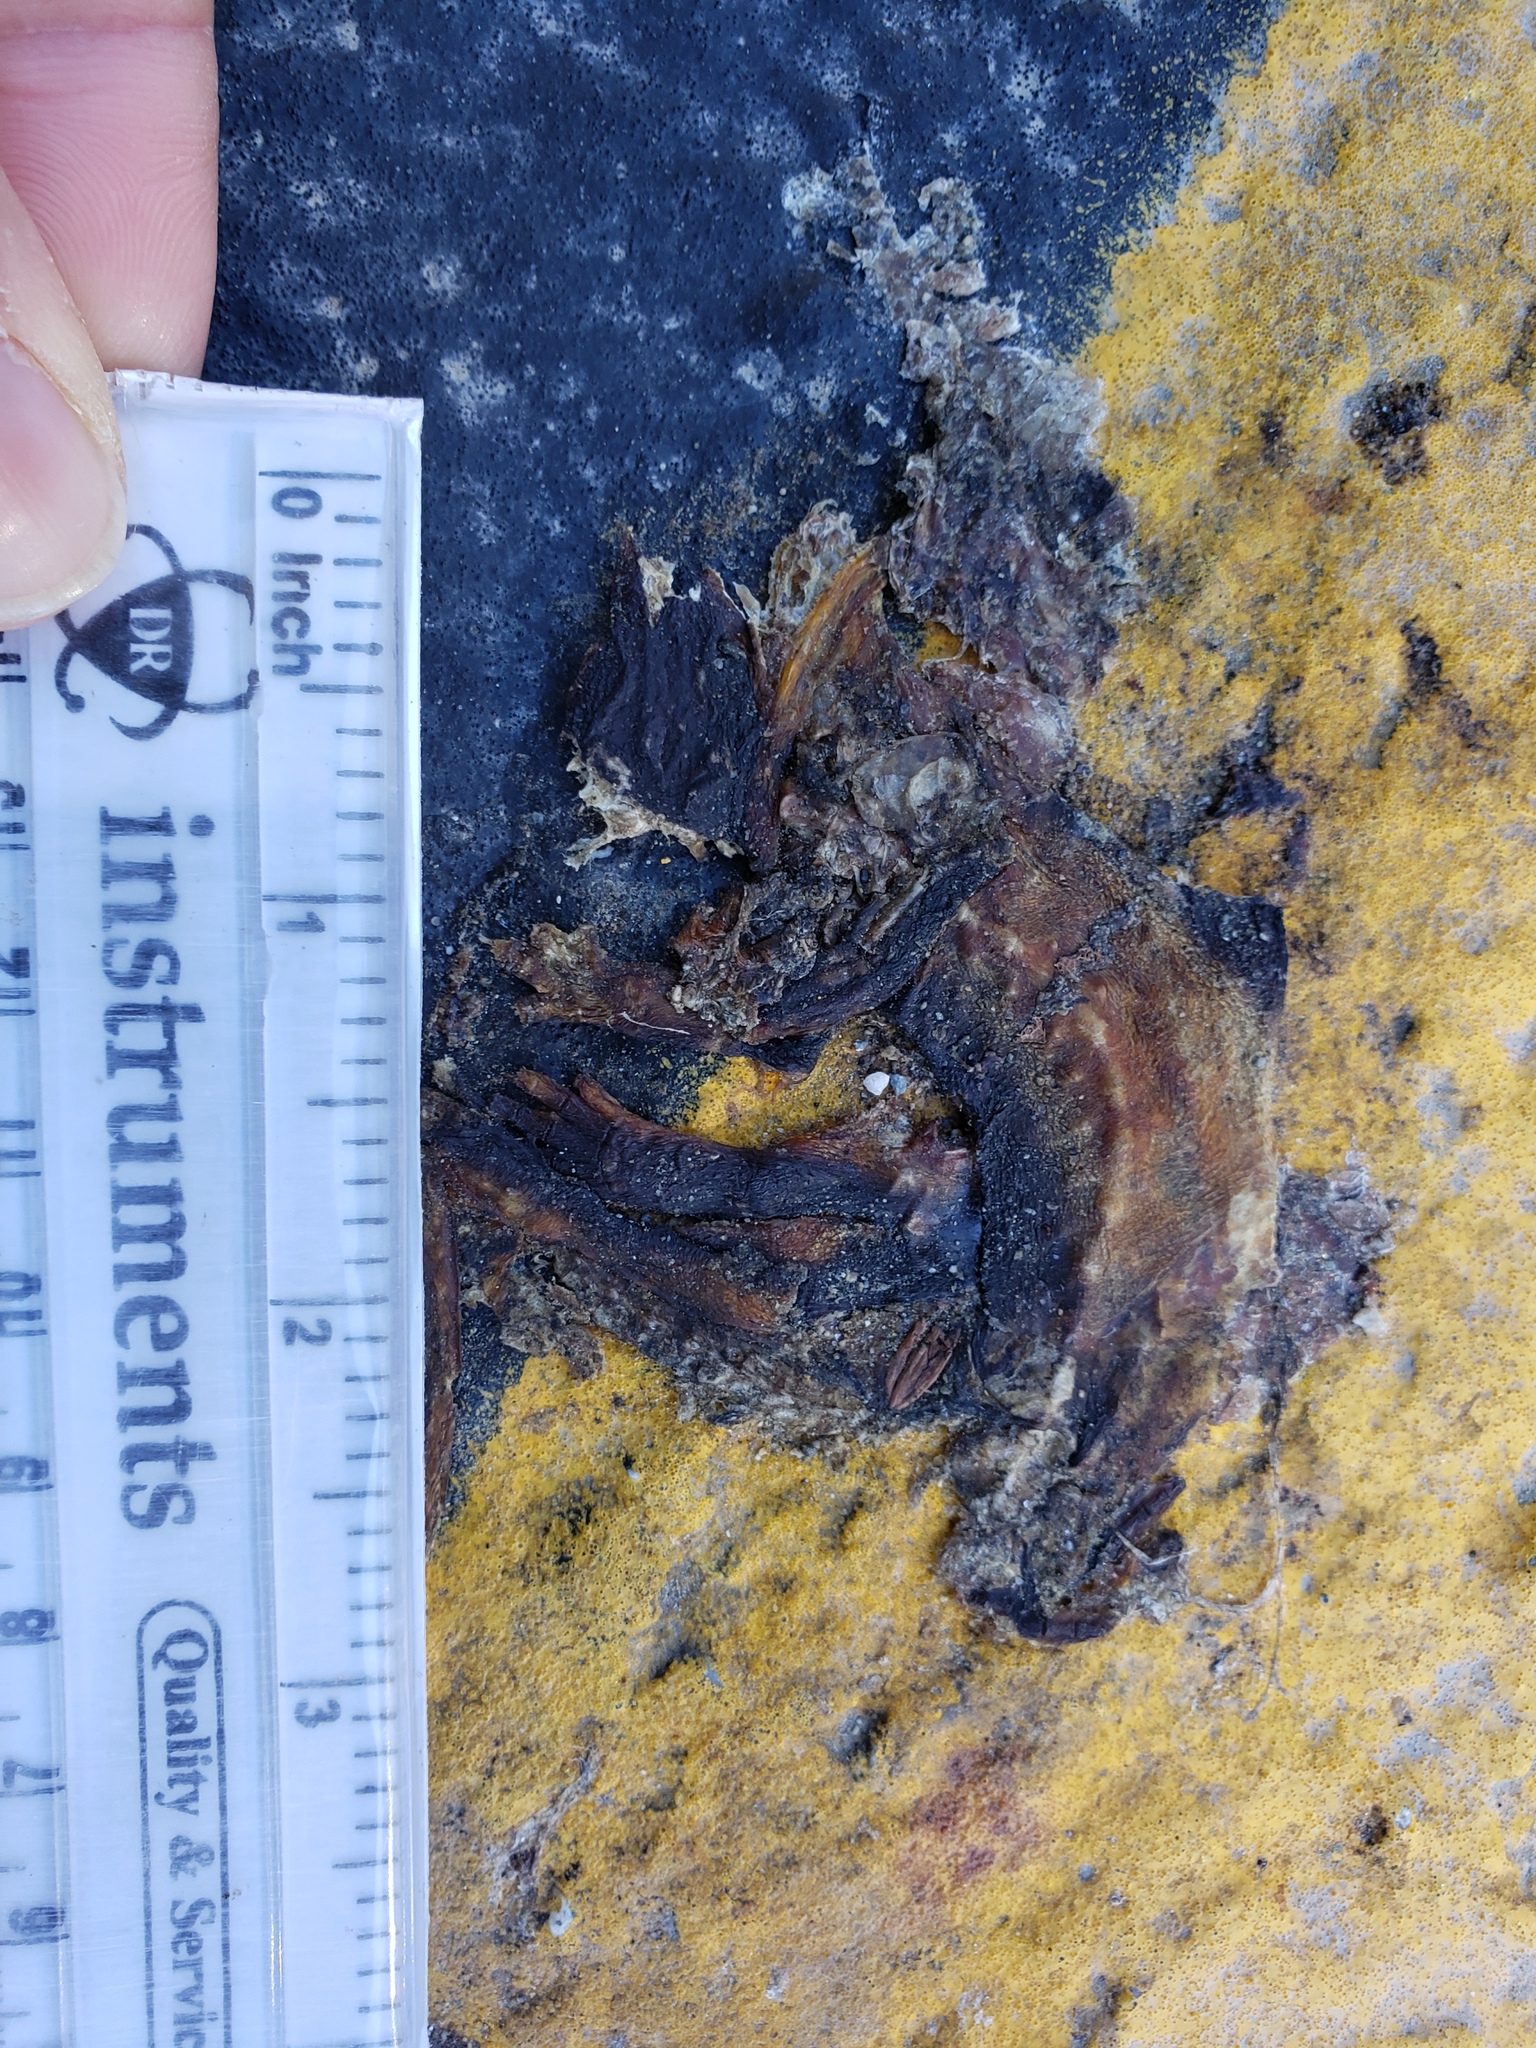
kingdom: Animalia
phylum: Chordata
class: Amphibia
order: Caudata
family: Salamandridae
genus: Taricha
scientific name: Taricha
